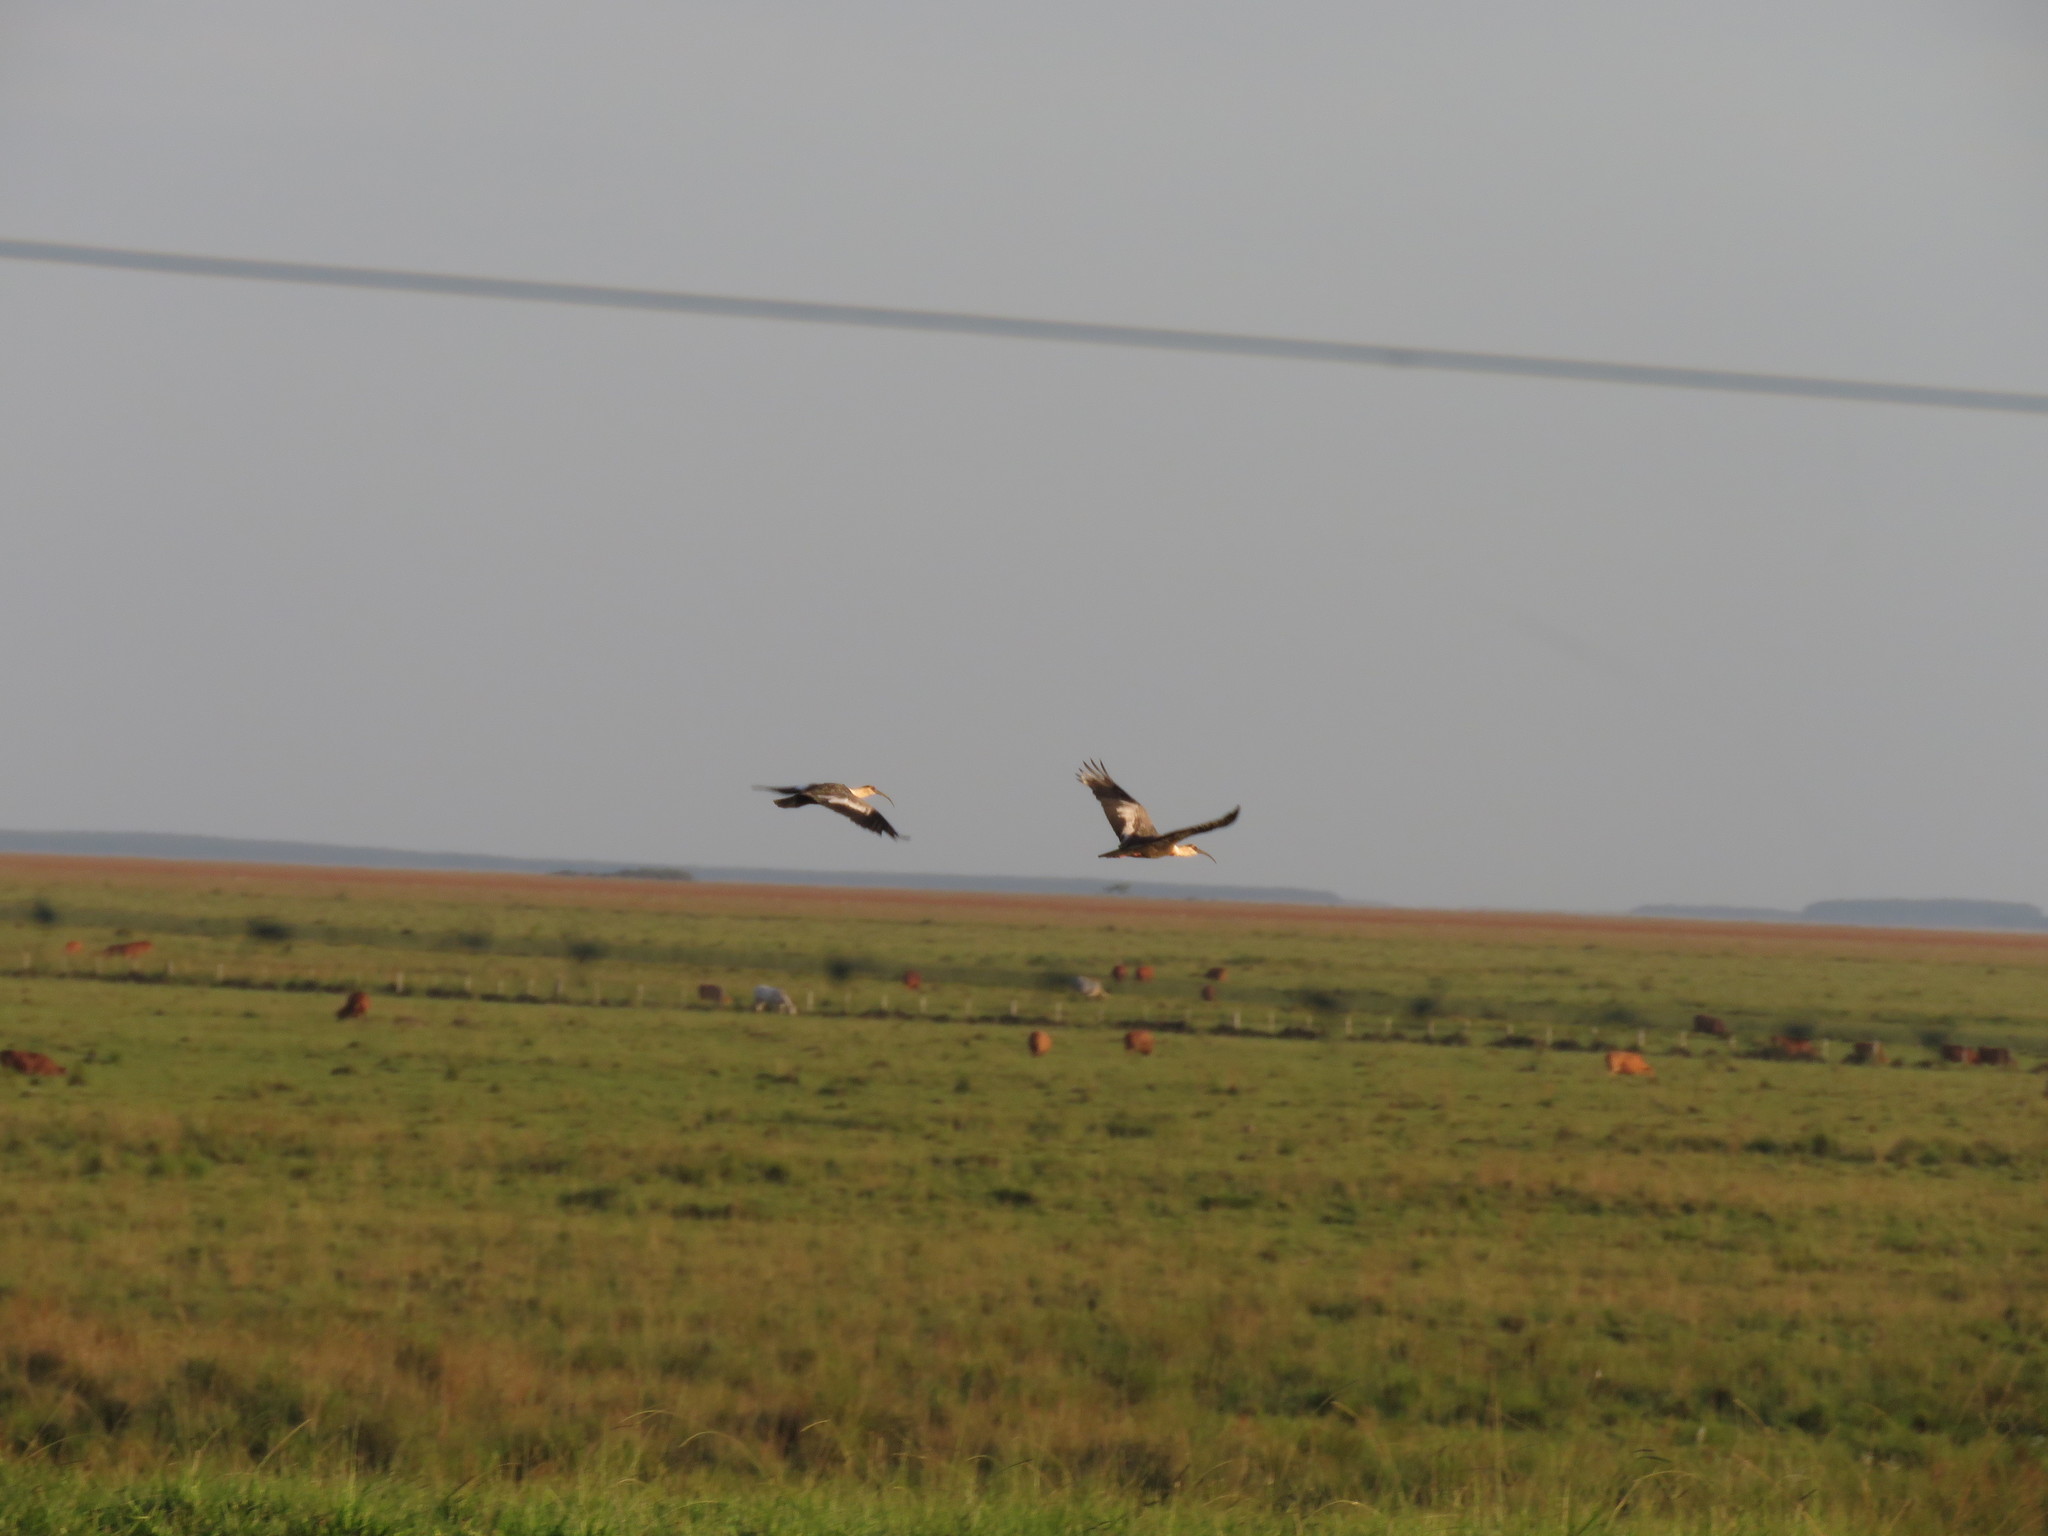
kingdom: Animalia
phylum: Chordata
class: Aves
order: Pelecaniformes
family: Threskiornithidae
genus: Theristicus
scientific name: Theristicus caudatus
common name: Buff-necked ibis
